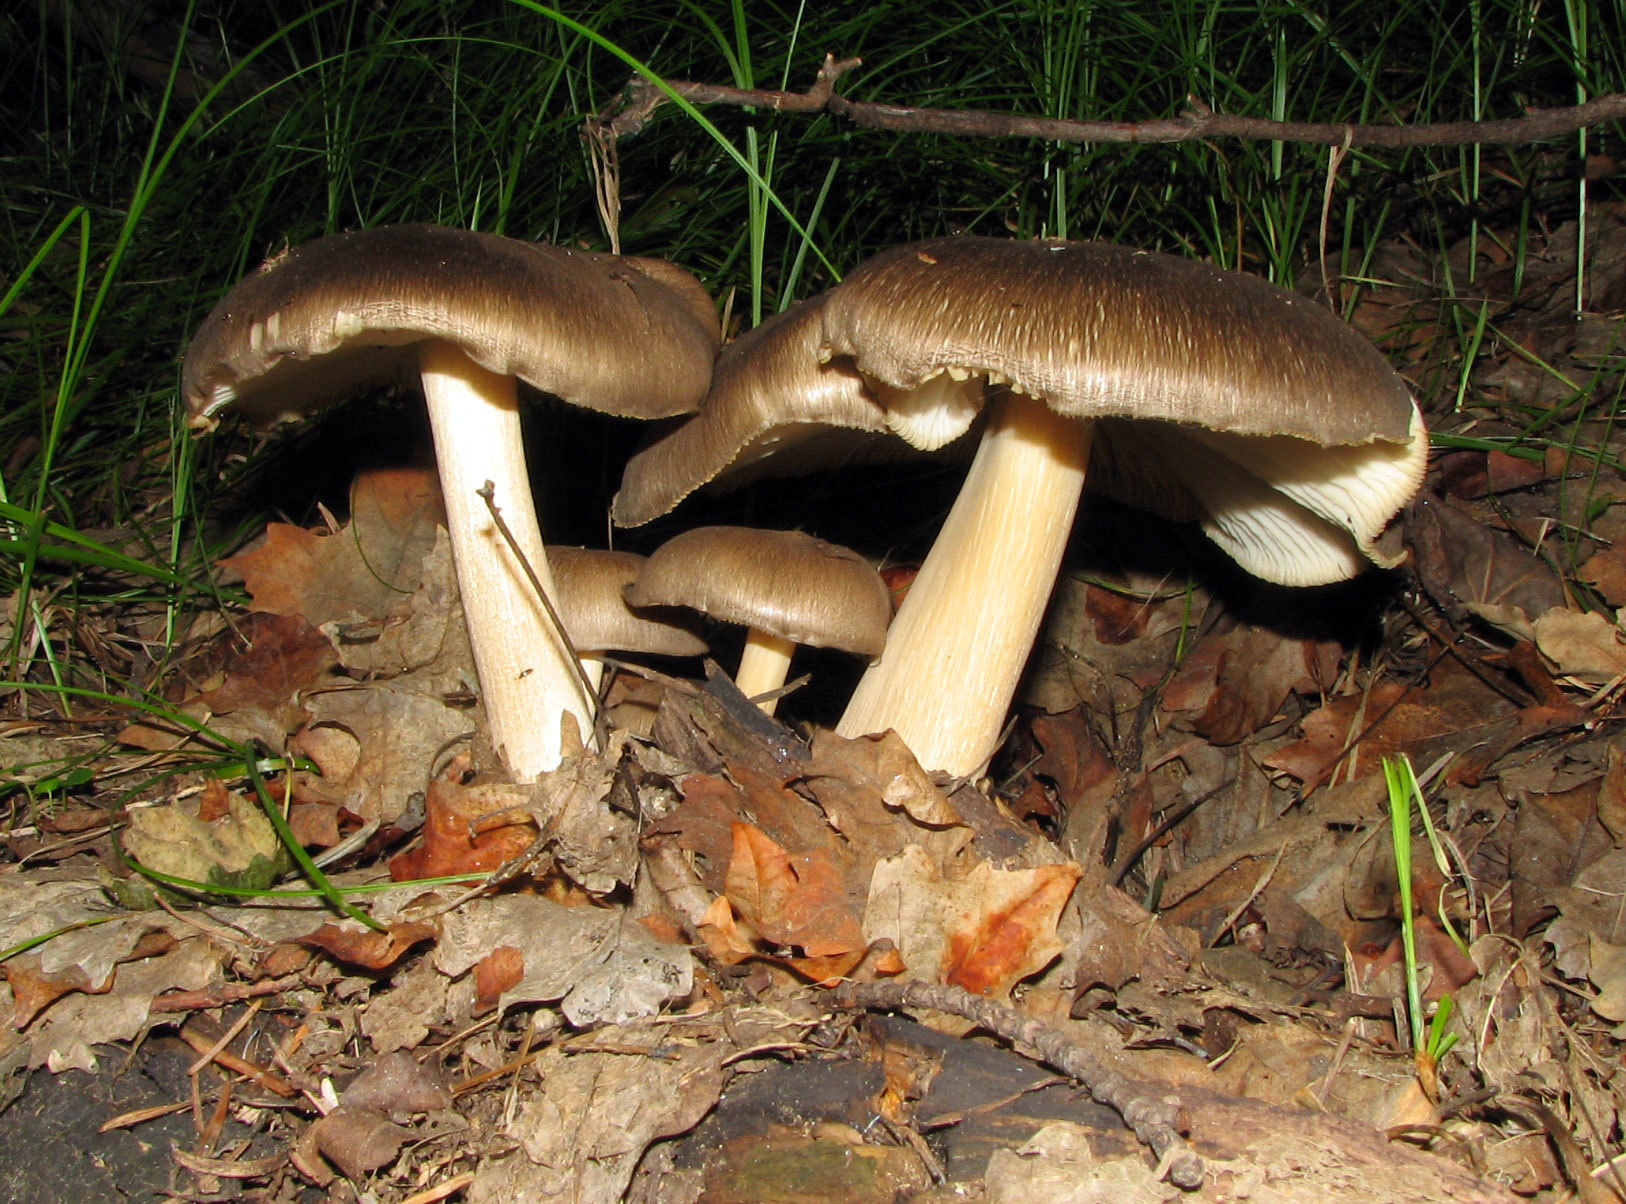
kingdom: Fungi
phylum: Basidiomycota
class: Agaricomycetes
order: Agaricales
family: Tricholomataceae
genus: Megacollybia
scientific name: Megacollybia fallax
